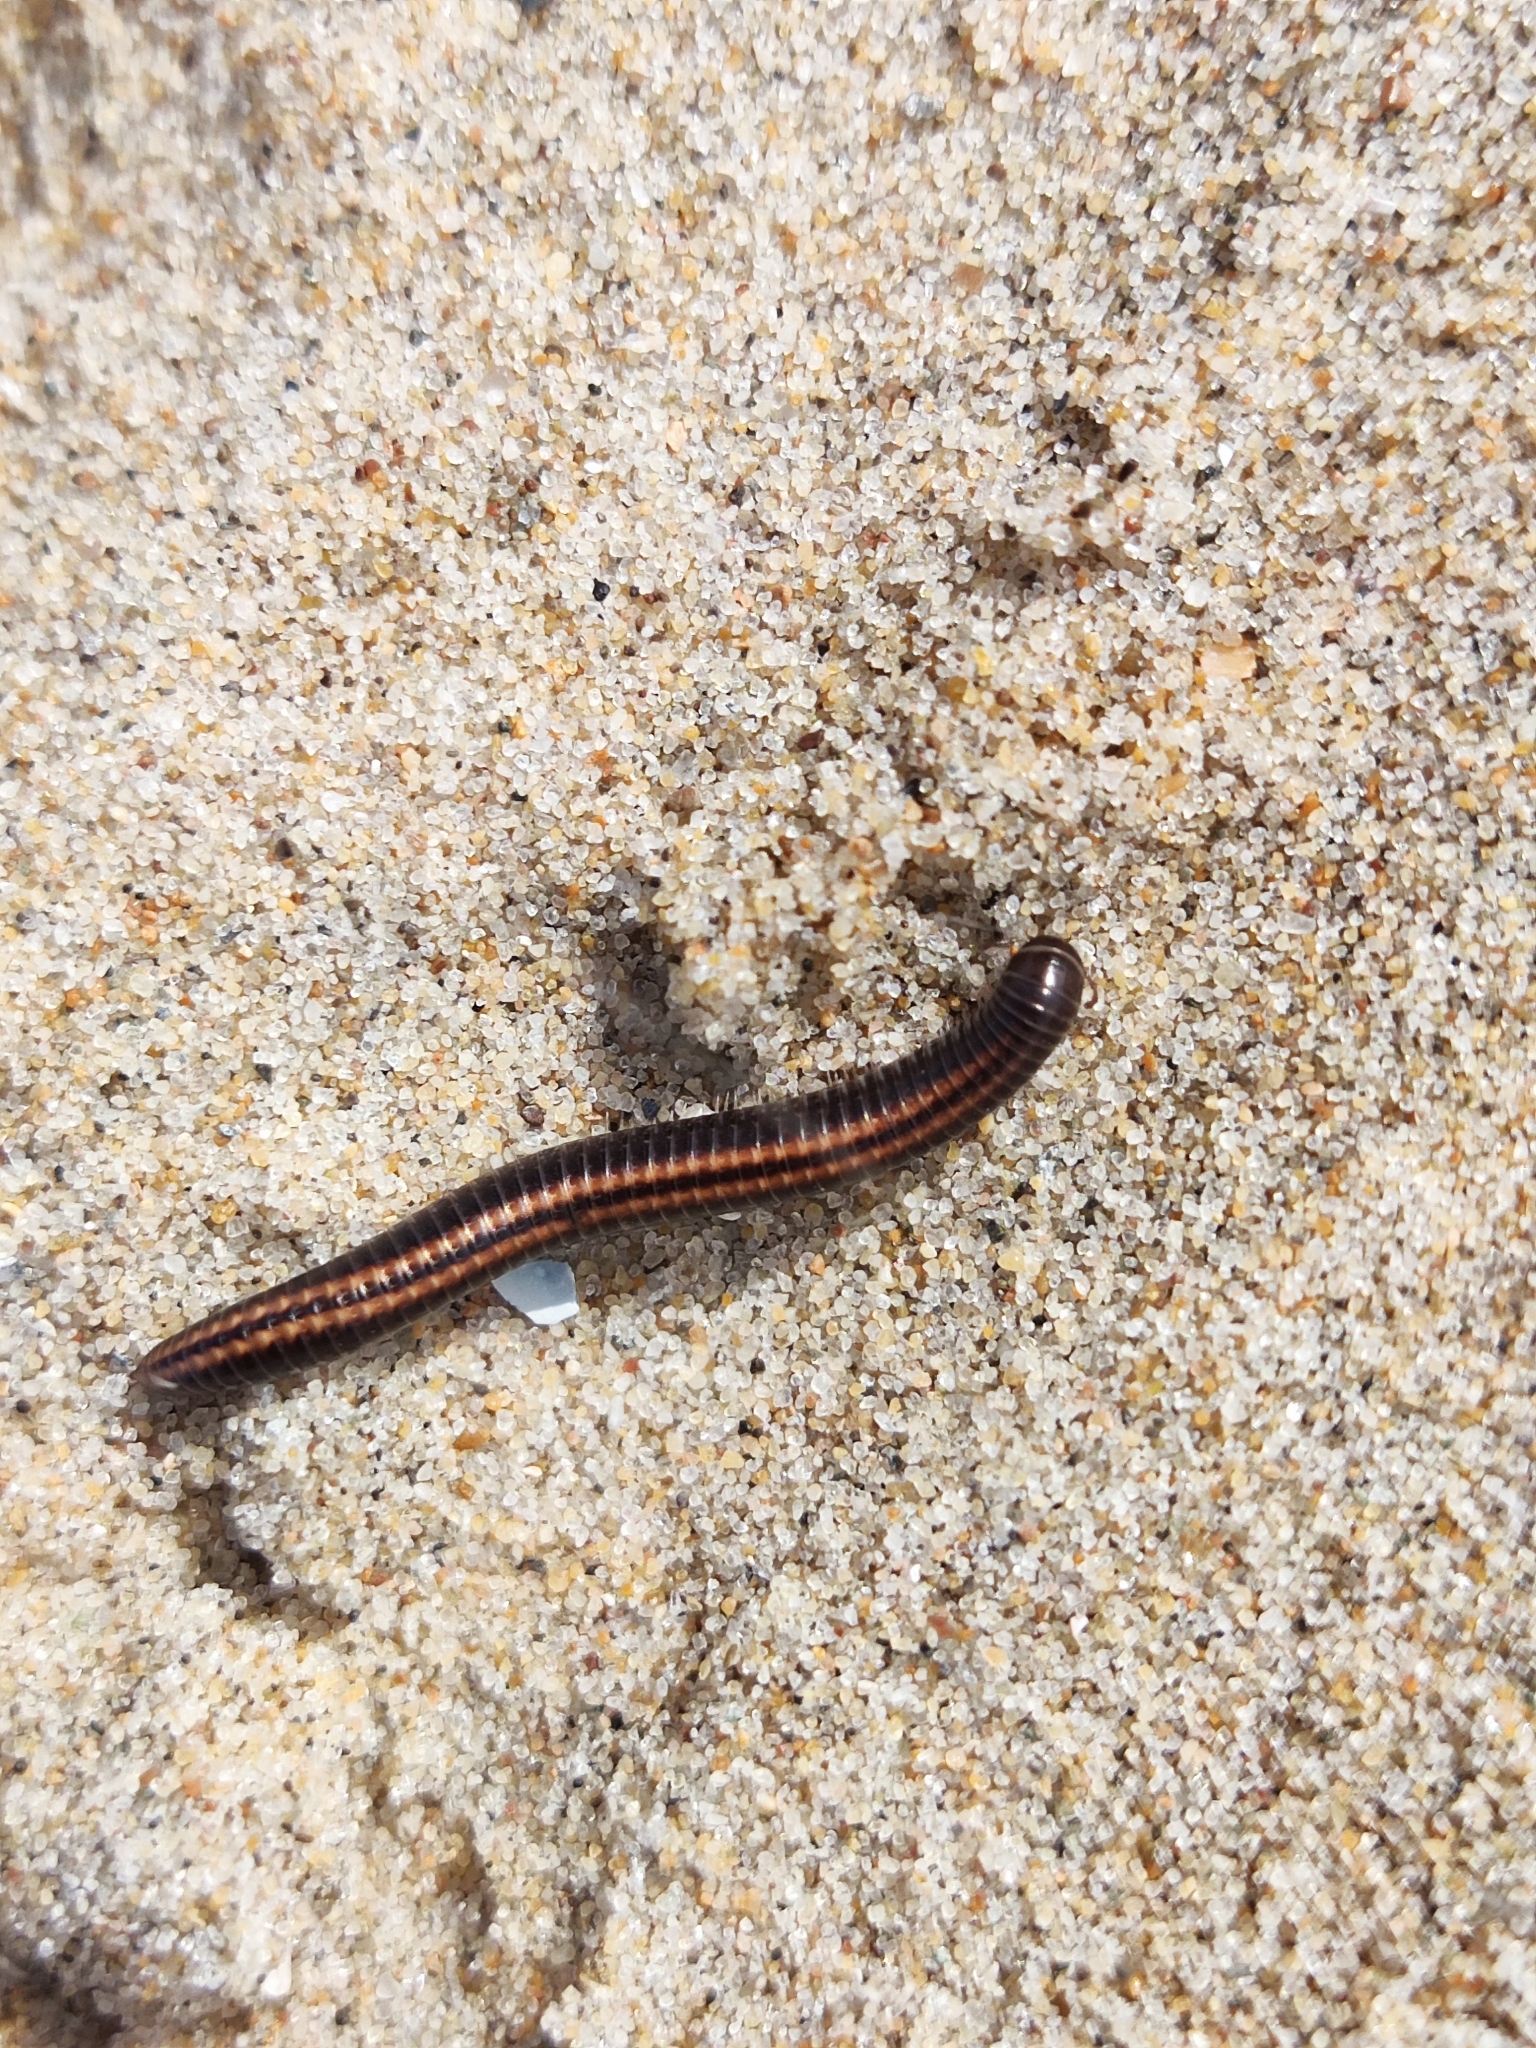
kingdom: Animalia
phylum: Arthropoda
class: Diplopoda
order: Julida
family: Julidae
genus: Ommatoiulus
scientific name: Ommatoiulus sabulosus
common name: Striped millipede
